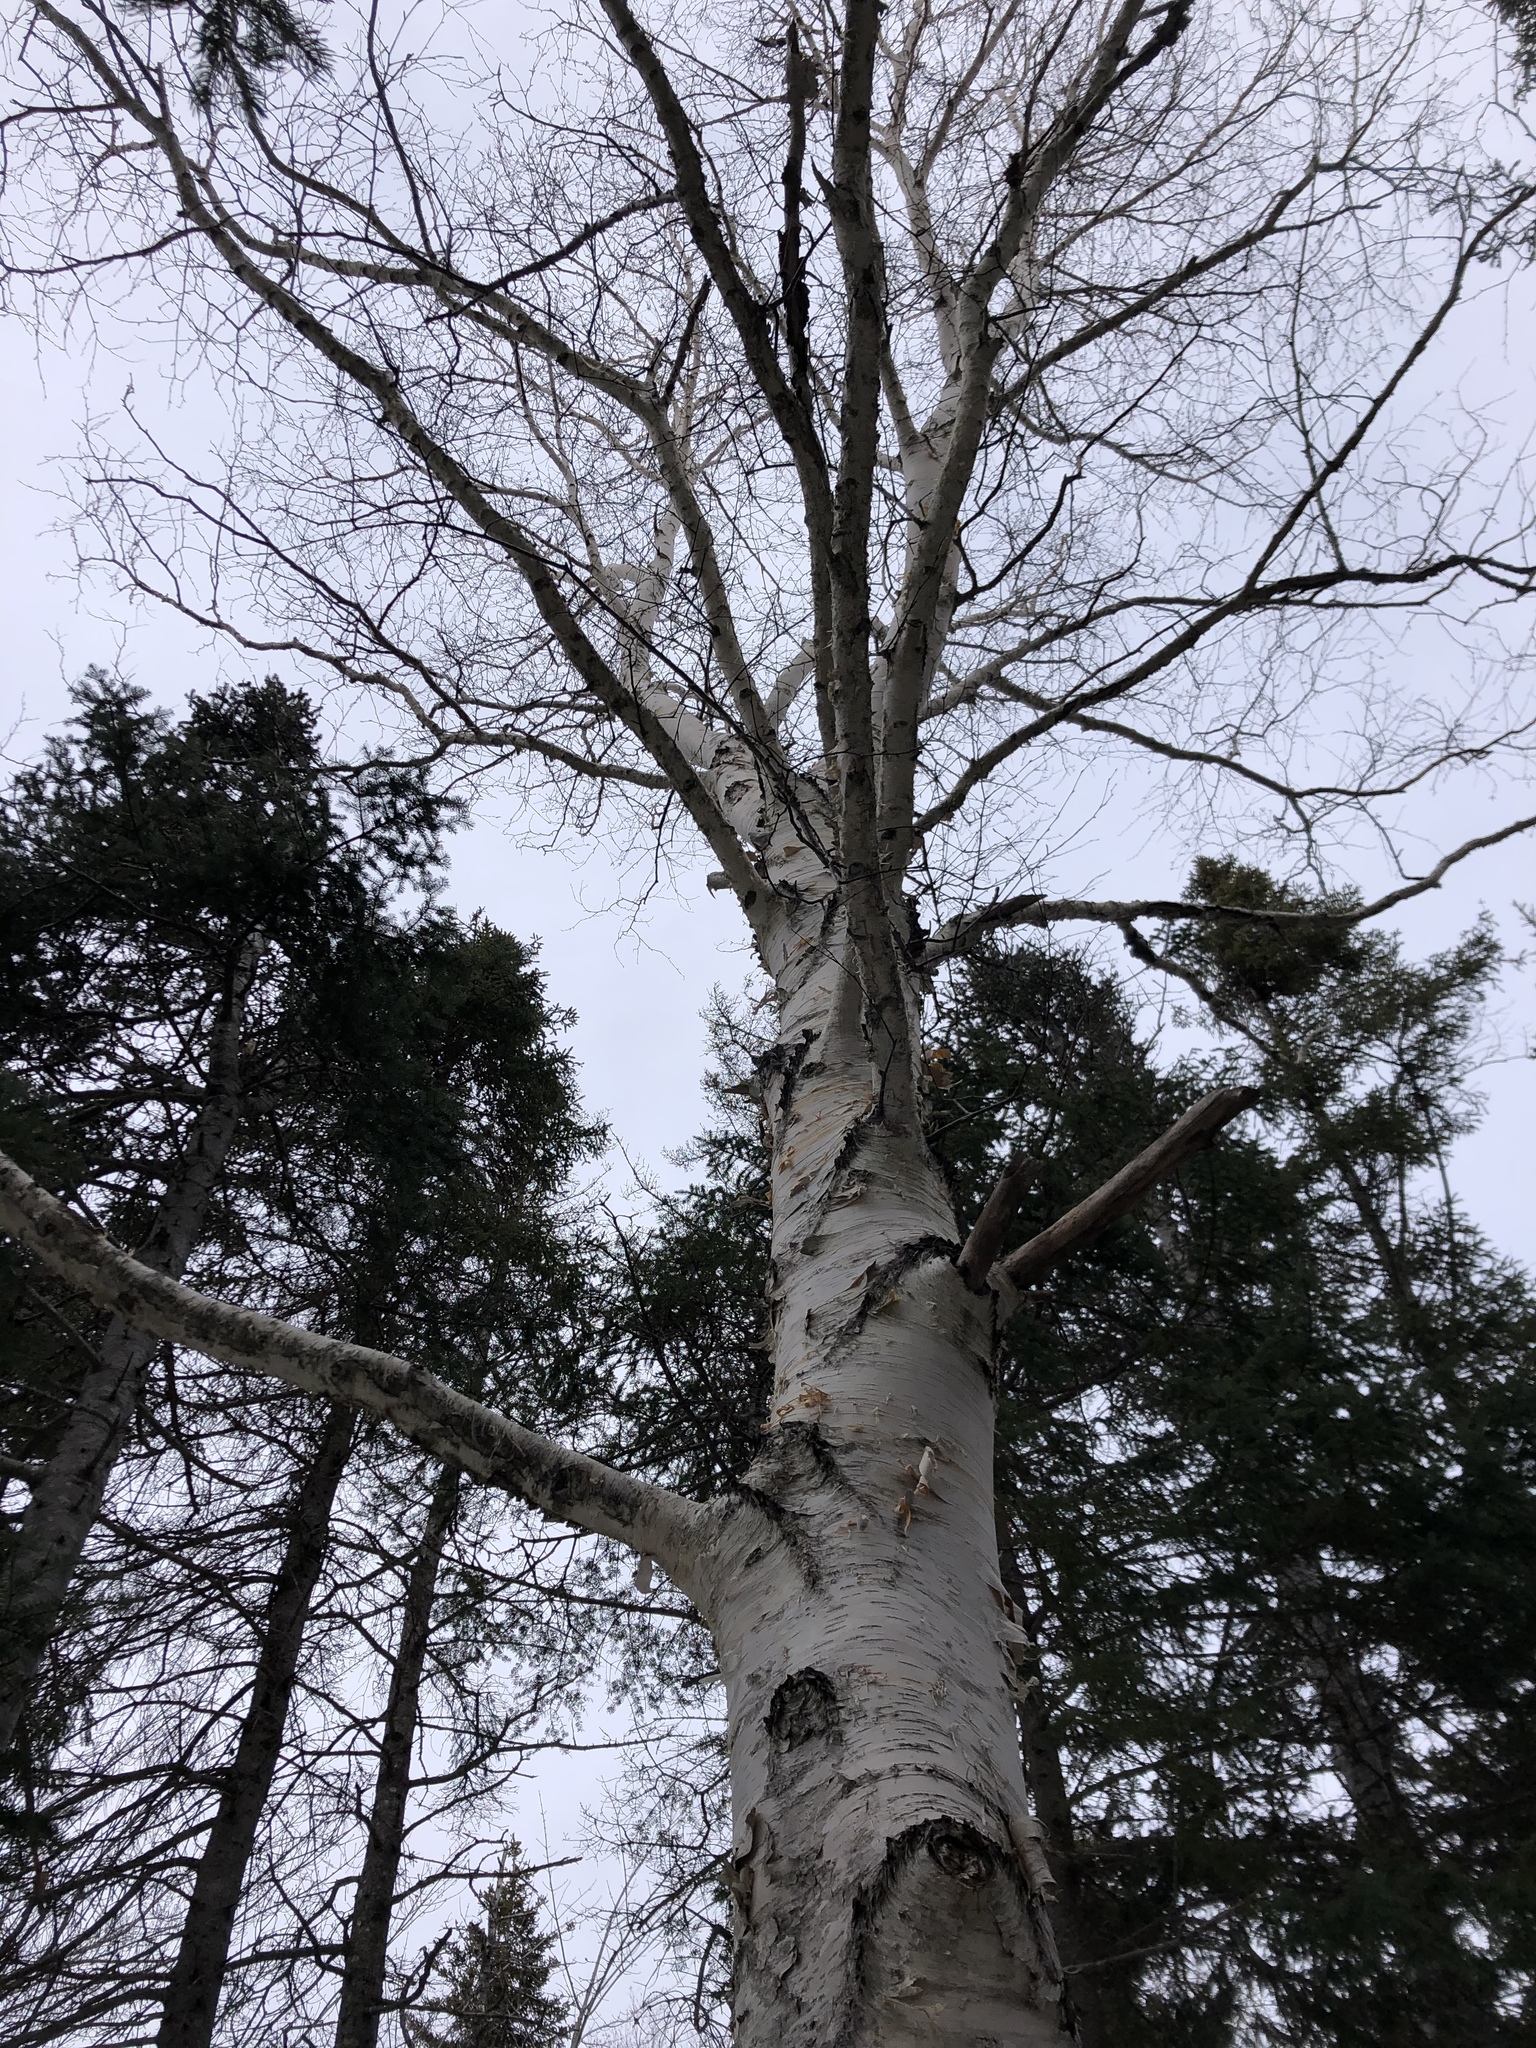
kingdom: Plantae
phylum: Tracheophyta
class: Magnoliopsida
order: Fagales
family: Betulaceae
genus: Betula
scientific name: Betula papyrifera
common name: Paper birch
